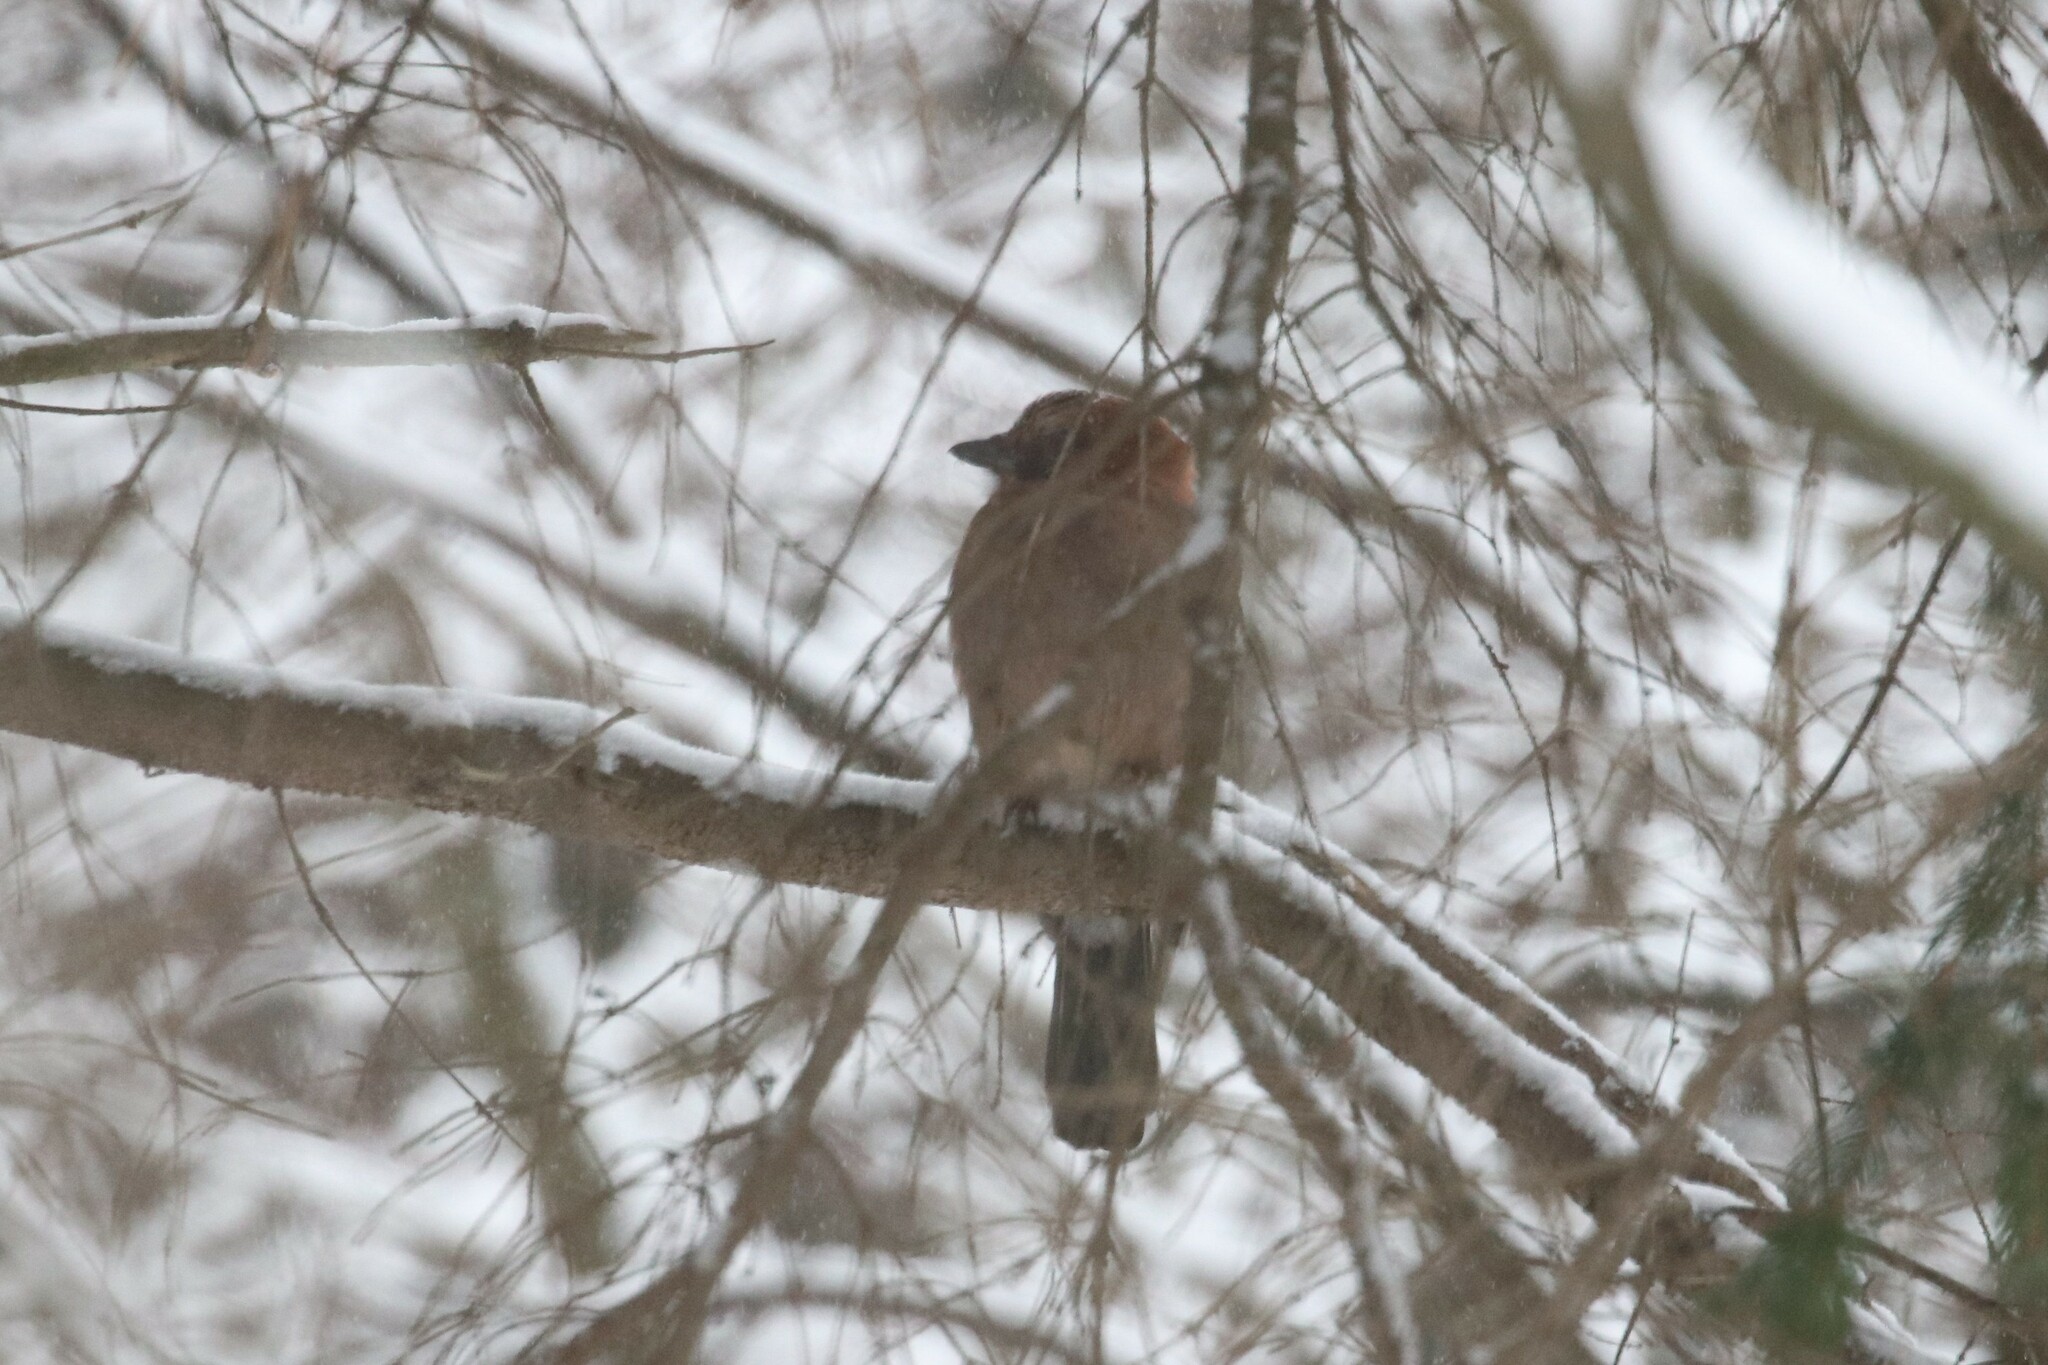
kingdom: Animalia
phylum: Chordata
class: Aves
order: Passeriformes
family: Corvidae
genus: Garrulus
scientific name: Garrulus glandarius
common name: Eurasian jay
